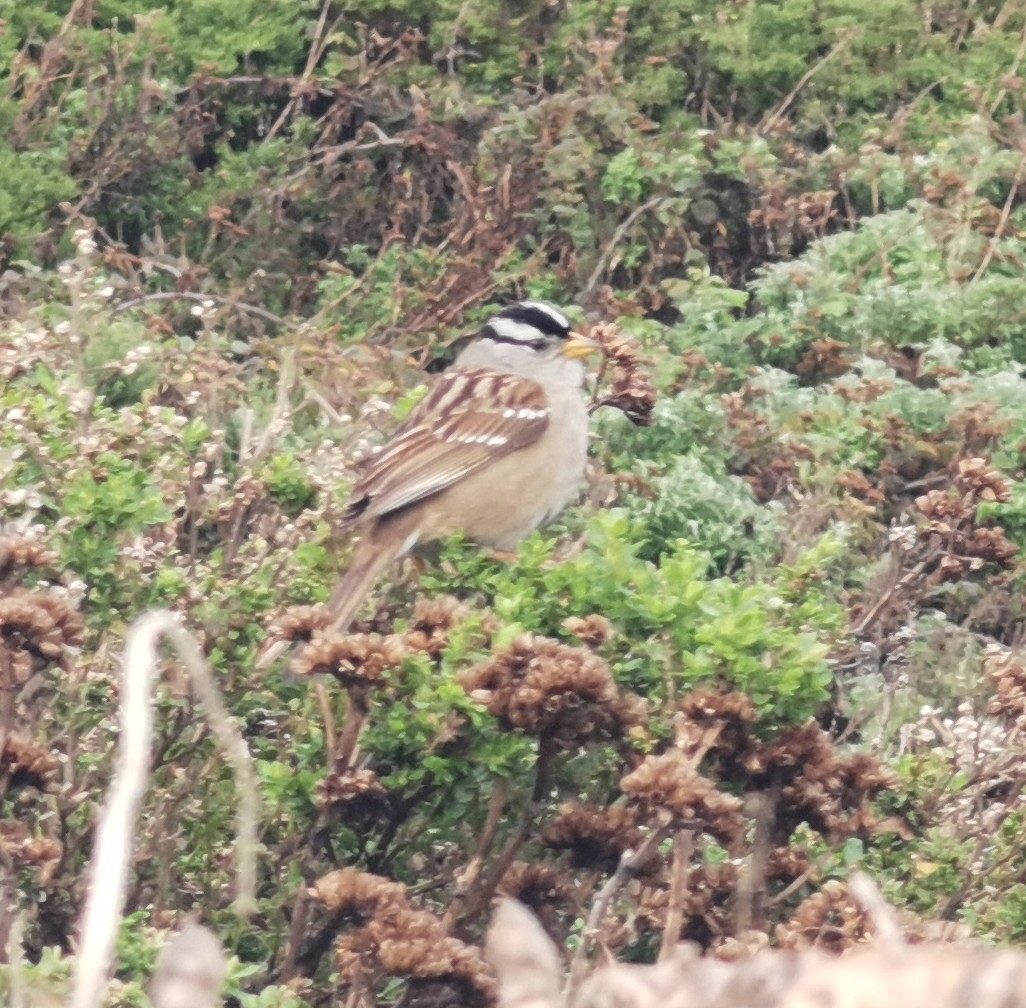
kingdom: Animalia
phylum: Chordata
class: Aves
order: Passeriformes
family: Passerellidae
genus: Zonotrichia
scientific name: Zonotrichia leucophrys
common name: White-crowned sparrow
